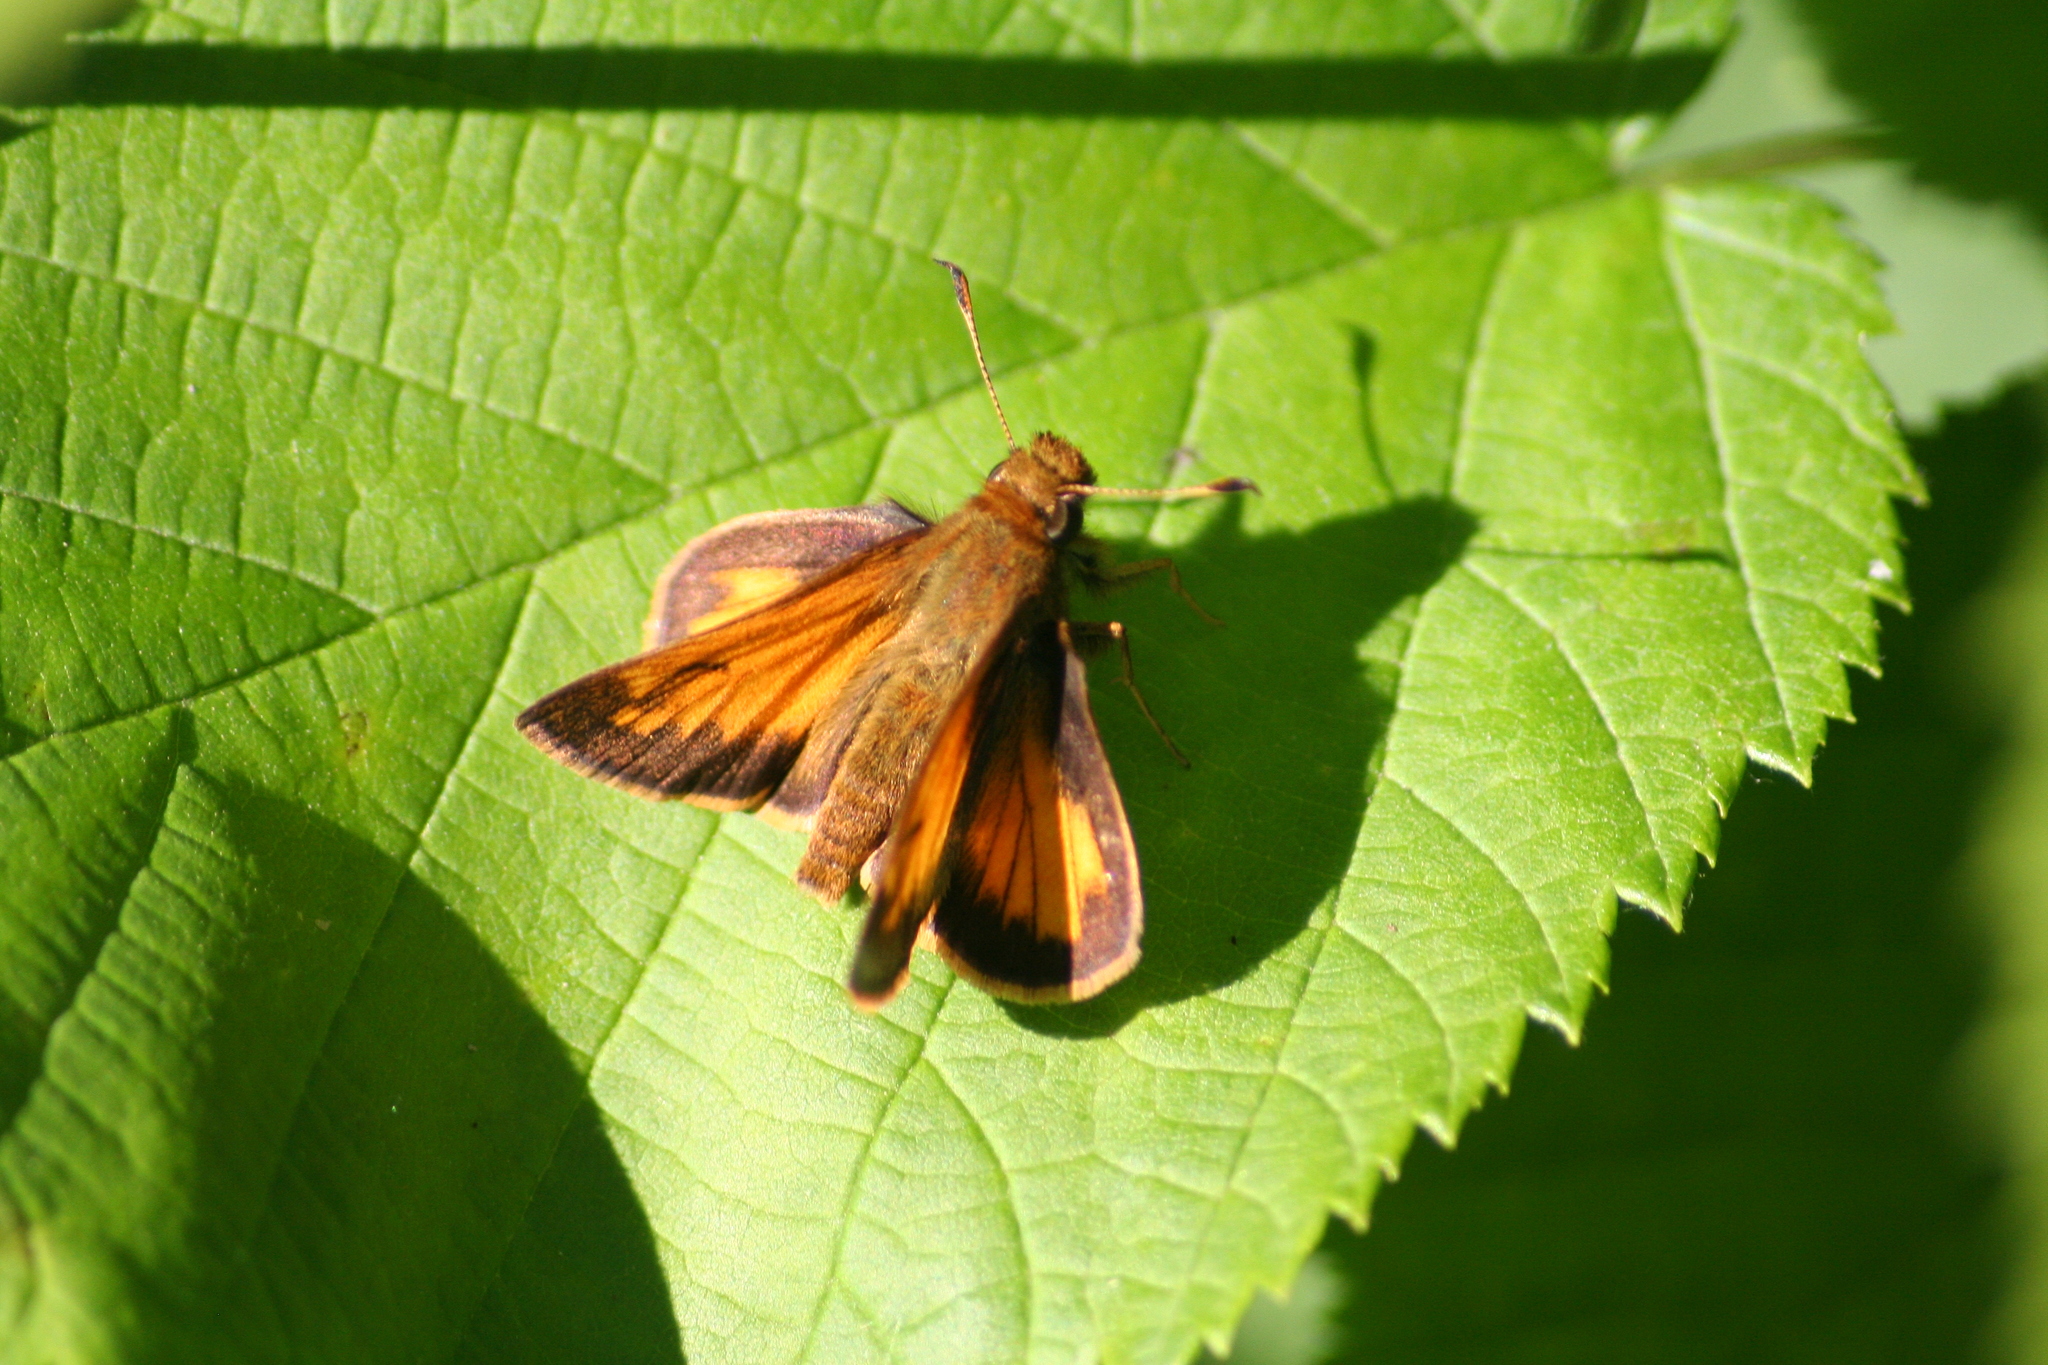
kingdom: Animalia
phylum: Arthropoda
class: Insecta
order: Lepidoptera
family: Hesperiidae
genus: Lon
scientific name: Lon hobomok
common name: Hobomok skipper
